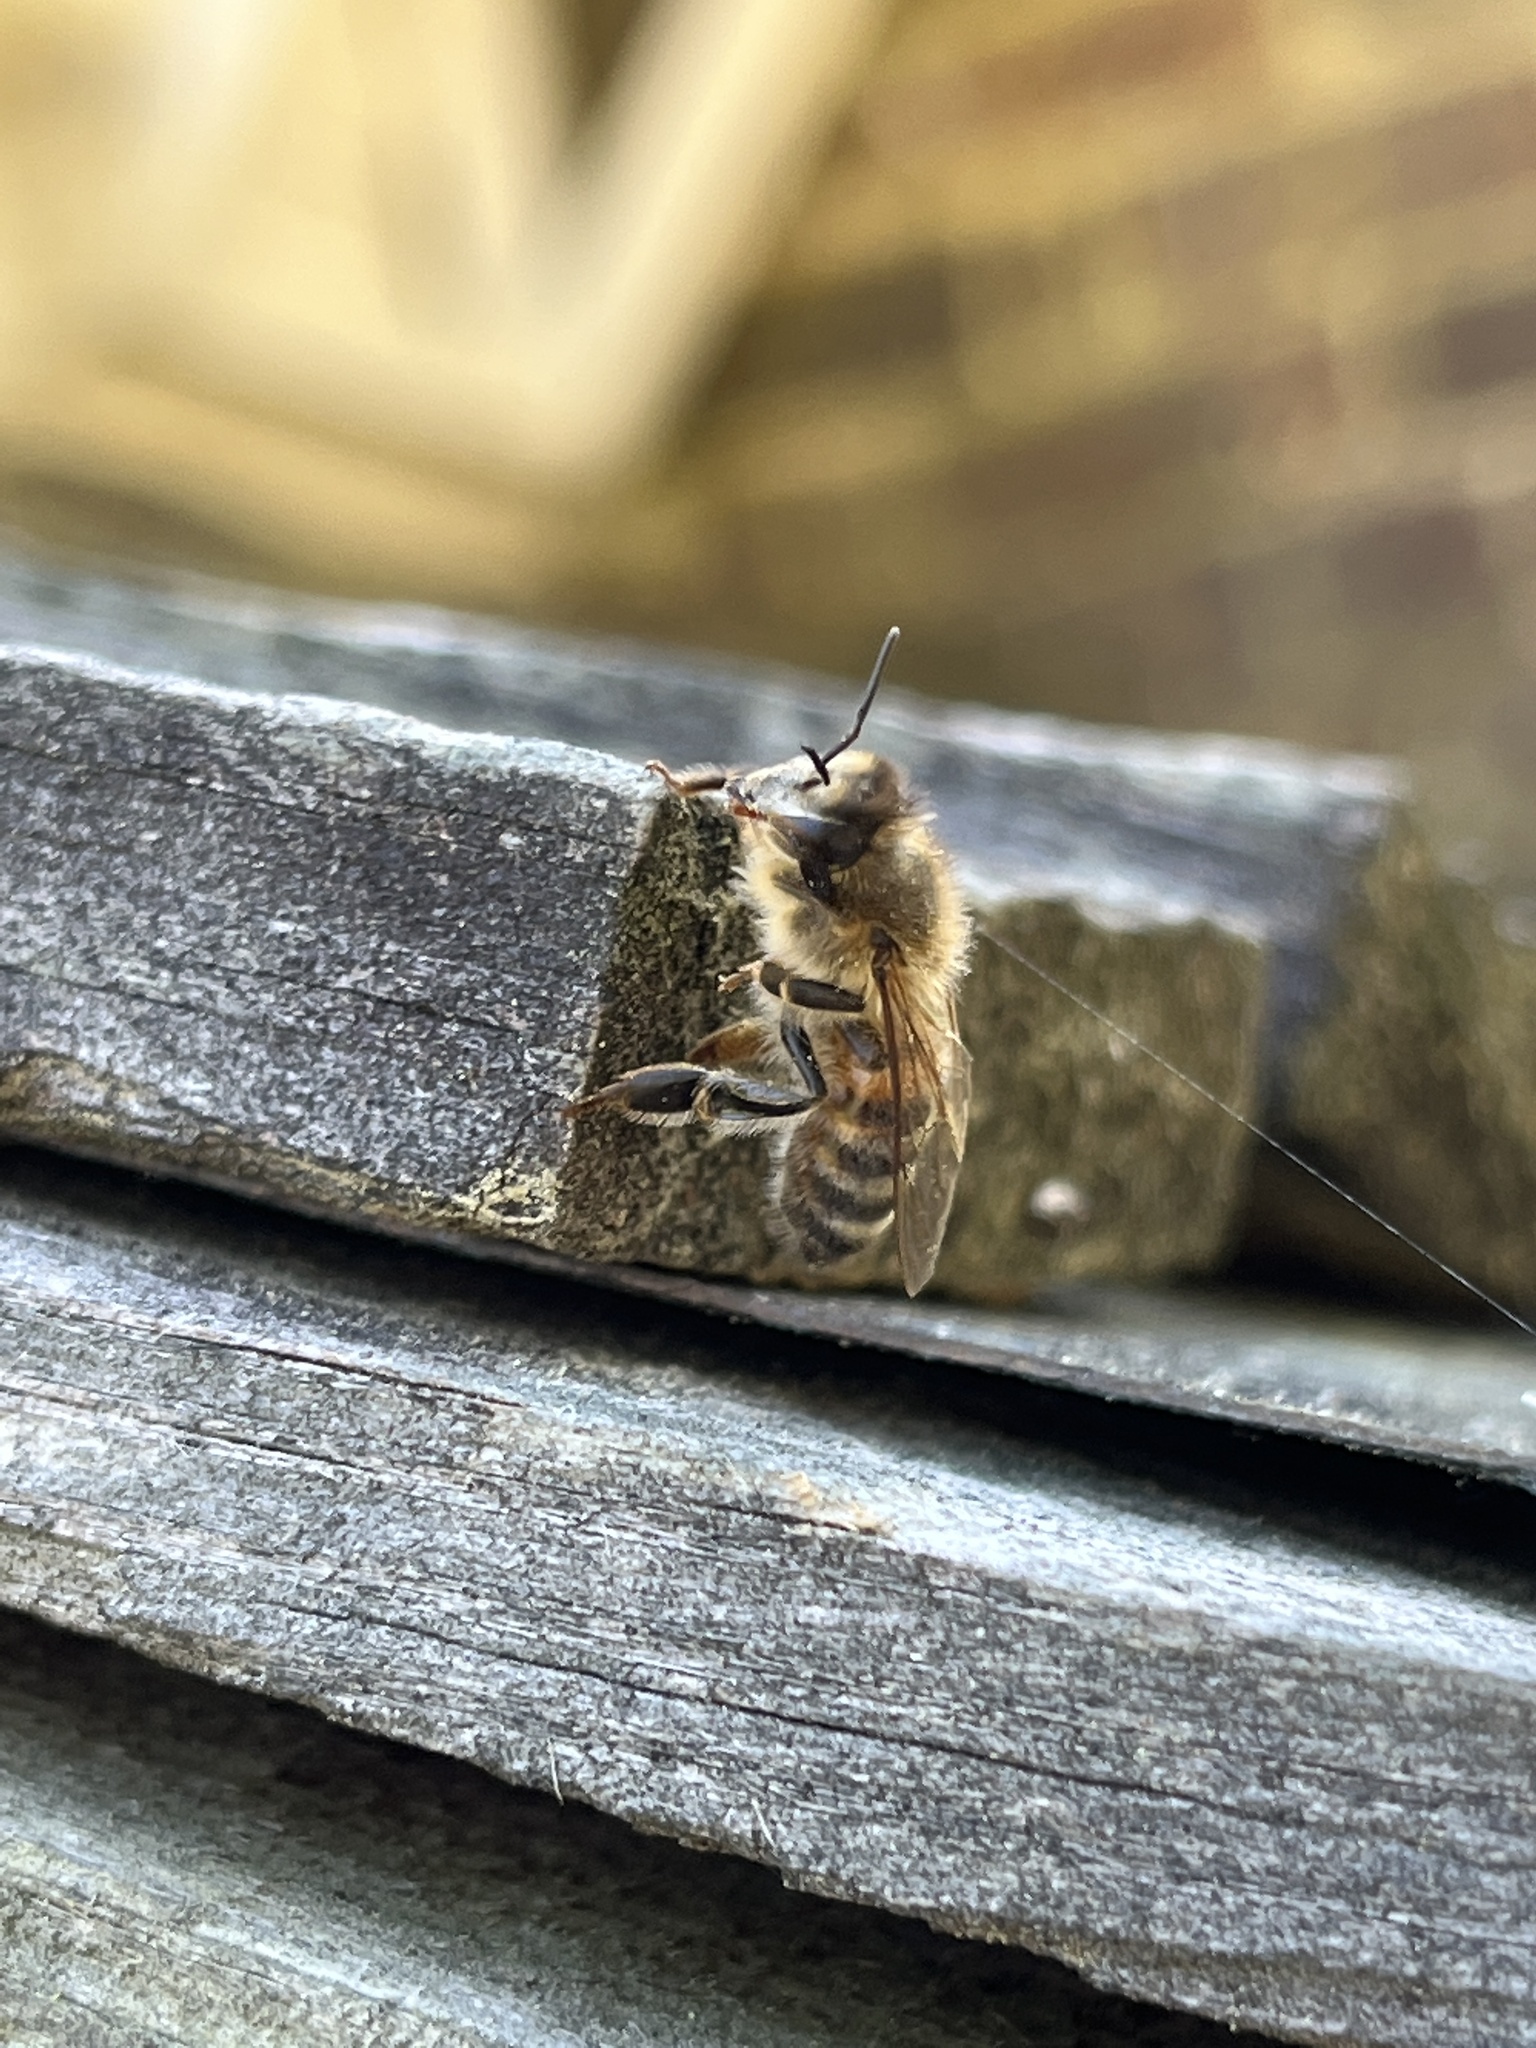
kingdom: Animalia
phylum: Arthropoda
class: Insecta
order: Hymenoptera
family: Apidae
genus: Apis
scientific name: Apis mellifera
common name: Honey bee
